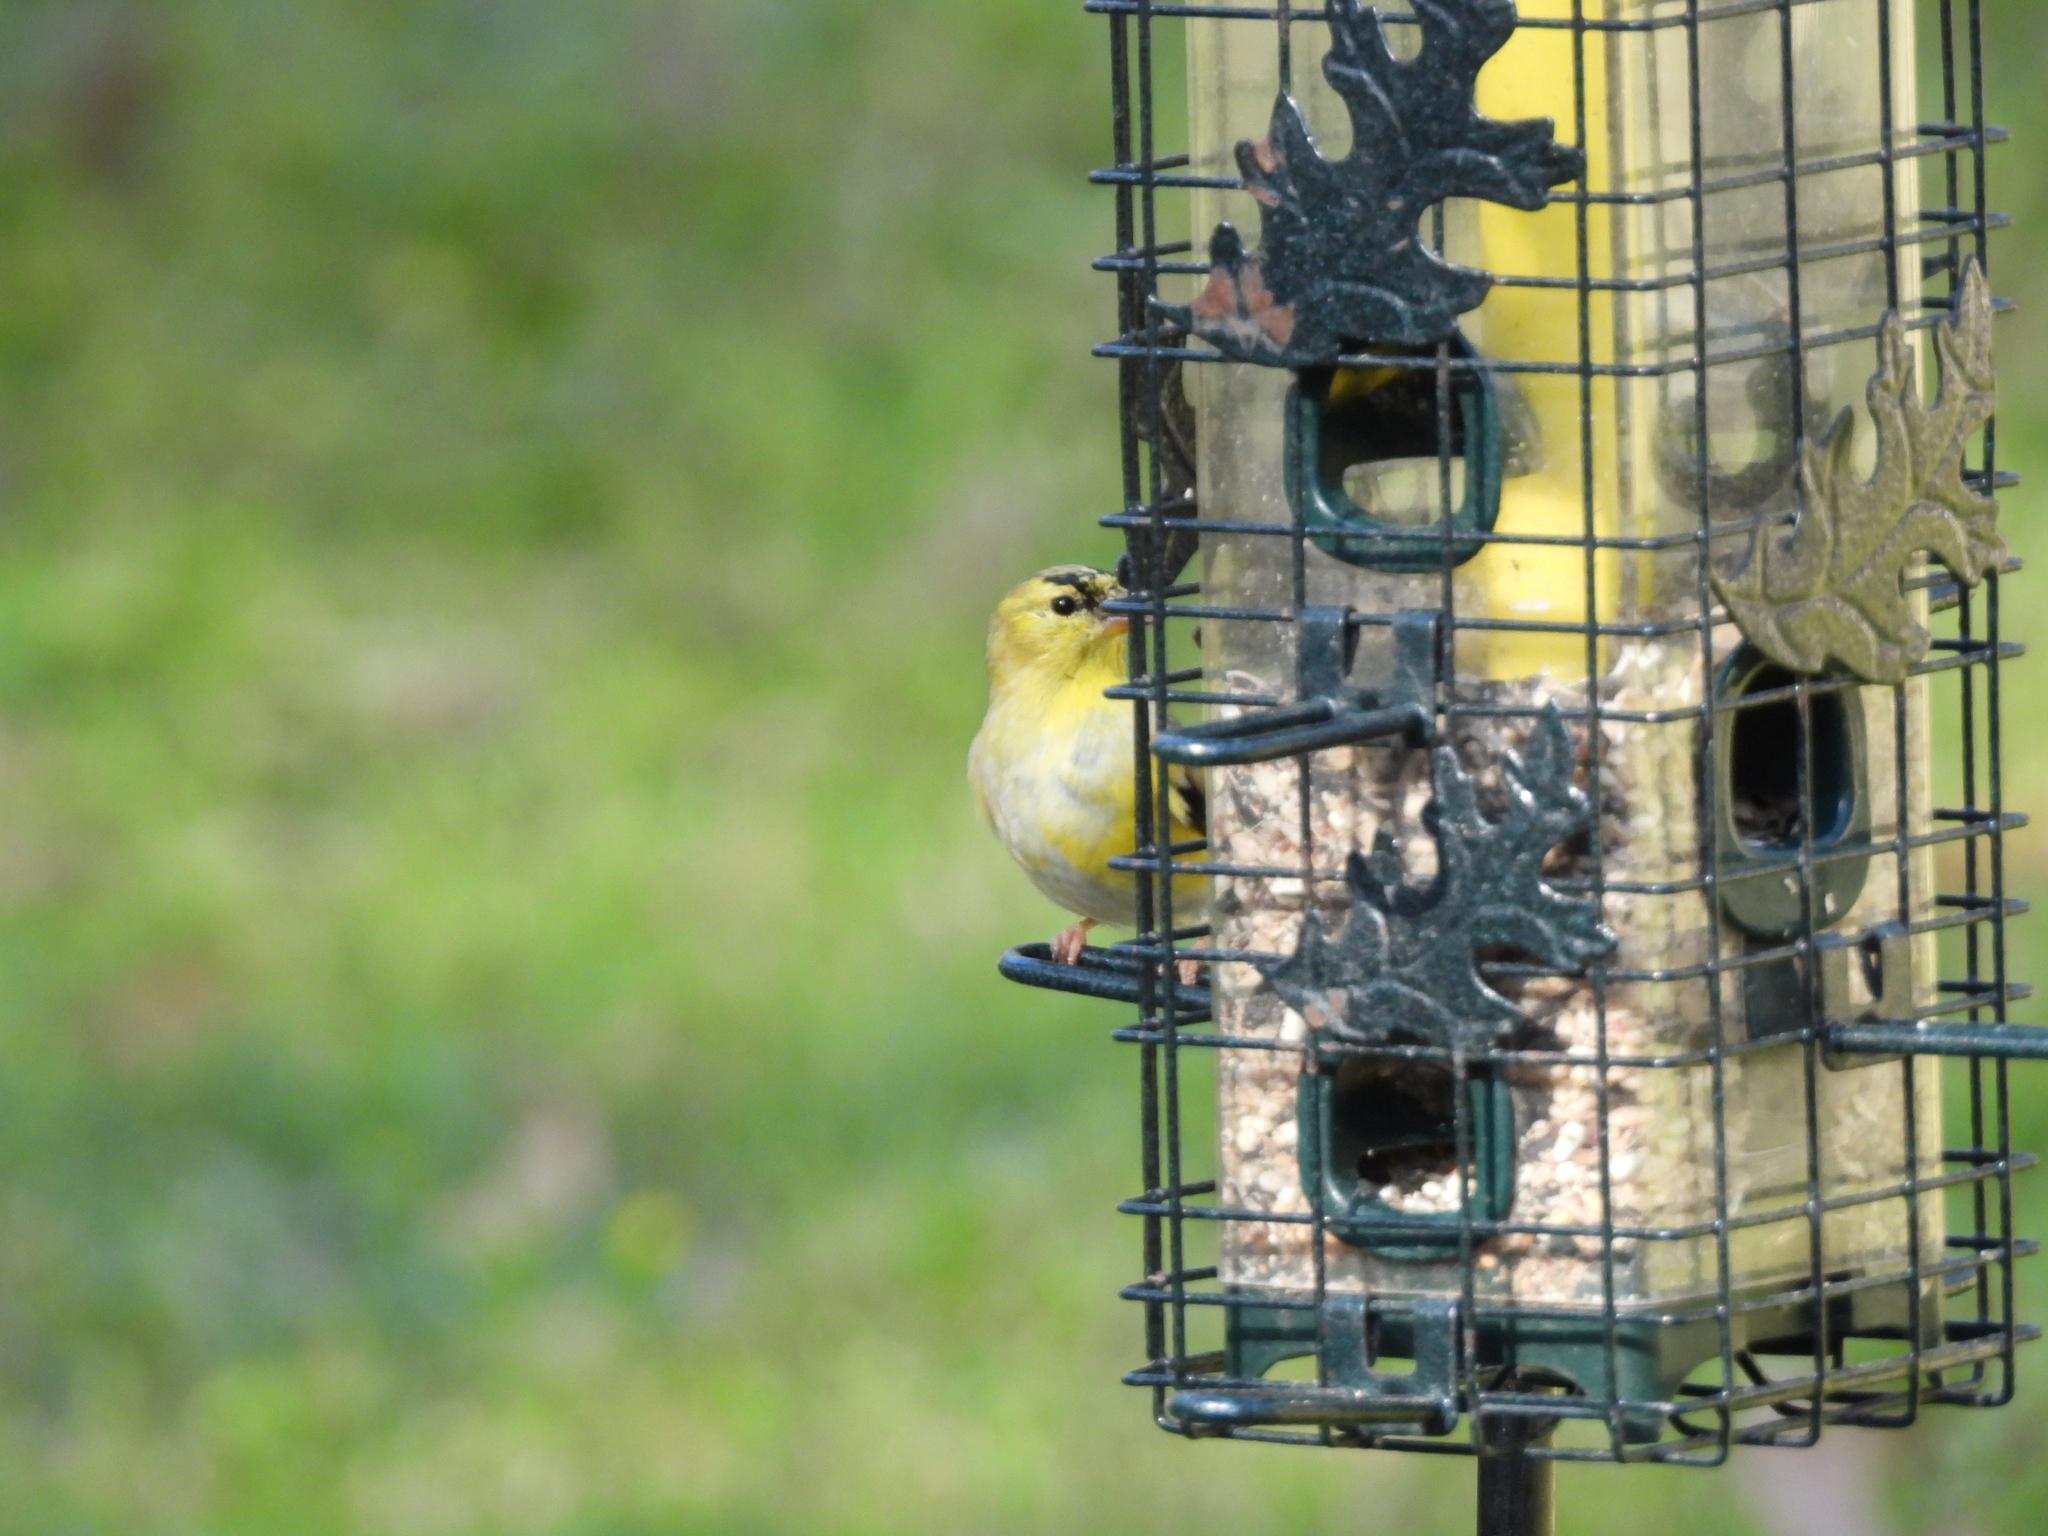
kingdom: Animalia
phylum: Chordata
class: Aves
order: Passeriformes
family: Fringillidae
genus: Spinus
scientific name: Spinus tristis
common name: American goldfinch
